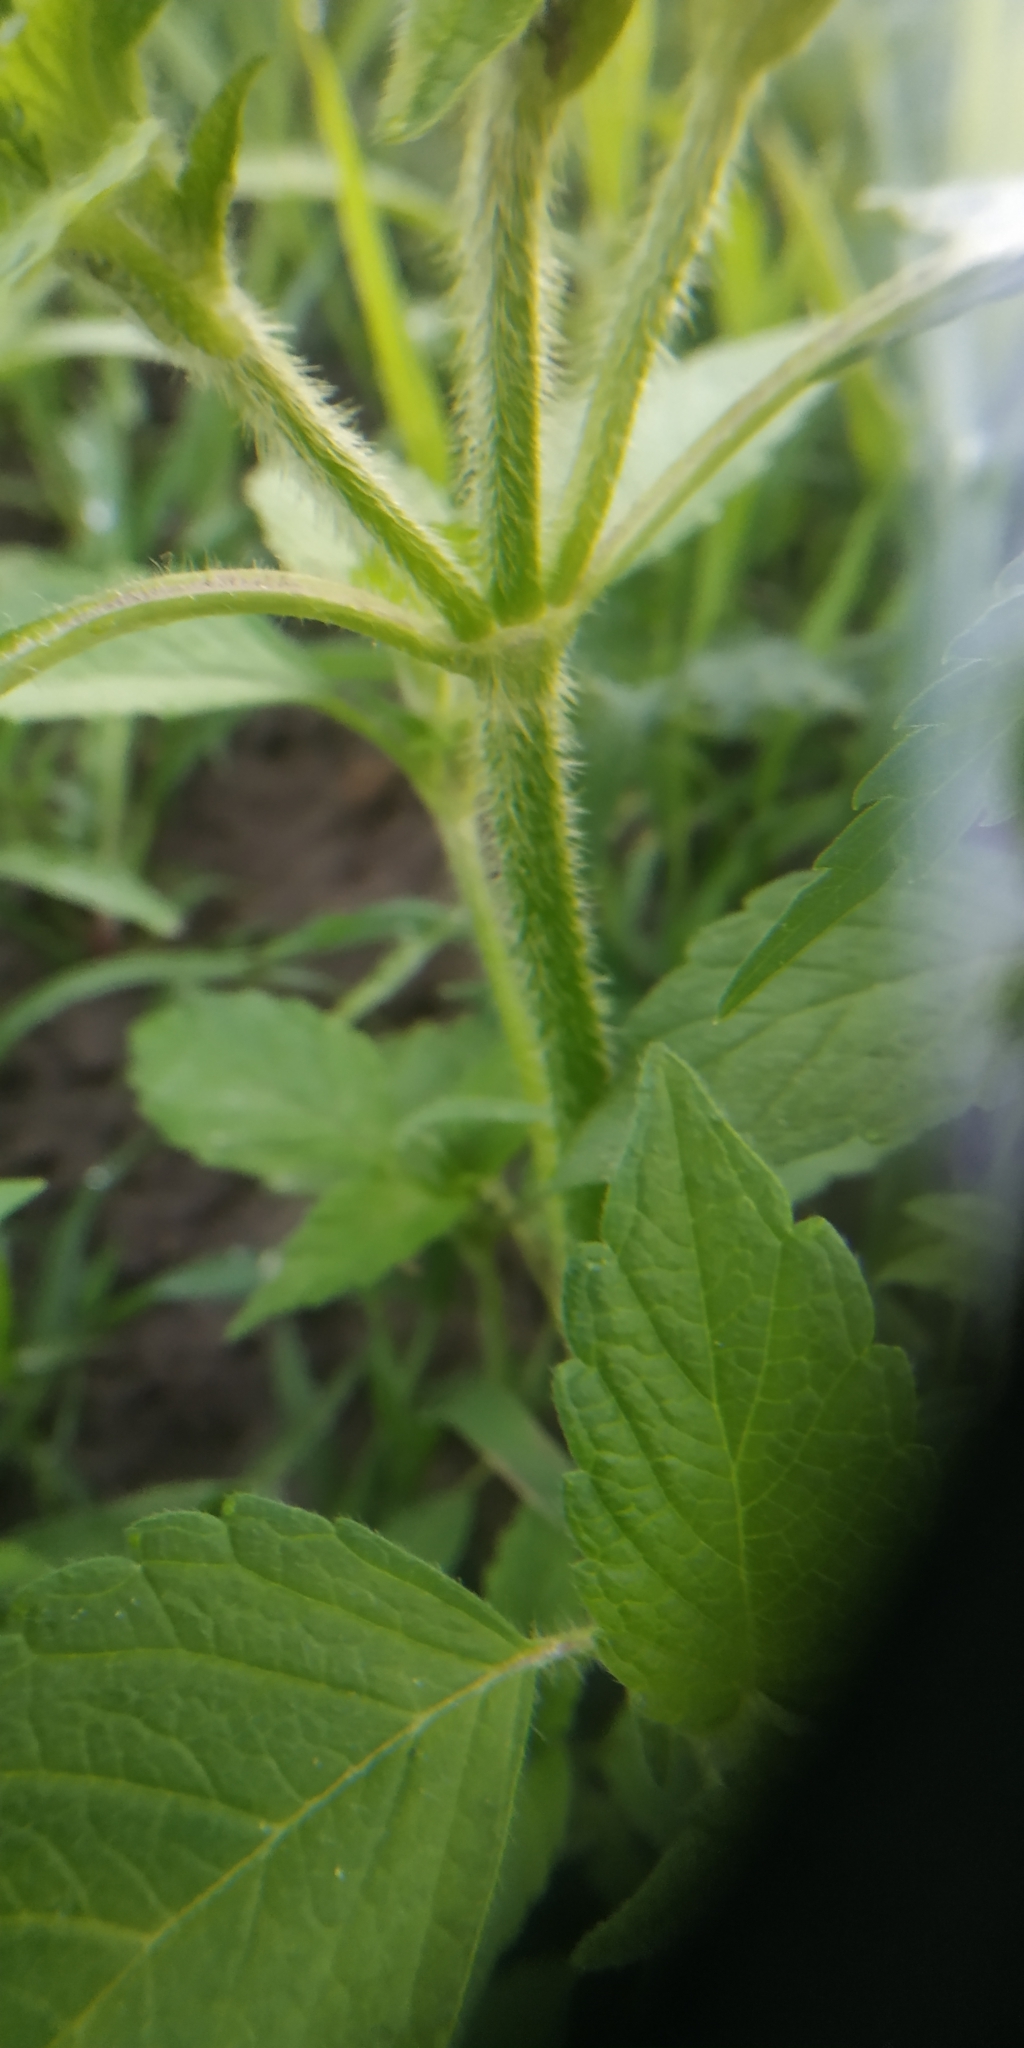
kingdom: Plantae
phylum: Tracheophyta
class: Magnoliopsida
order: Lamiales
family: Lamiaceae
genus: Galeopsis
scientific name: Galeopsis speciosa
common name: Large-flowered hemp-nettle
